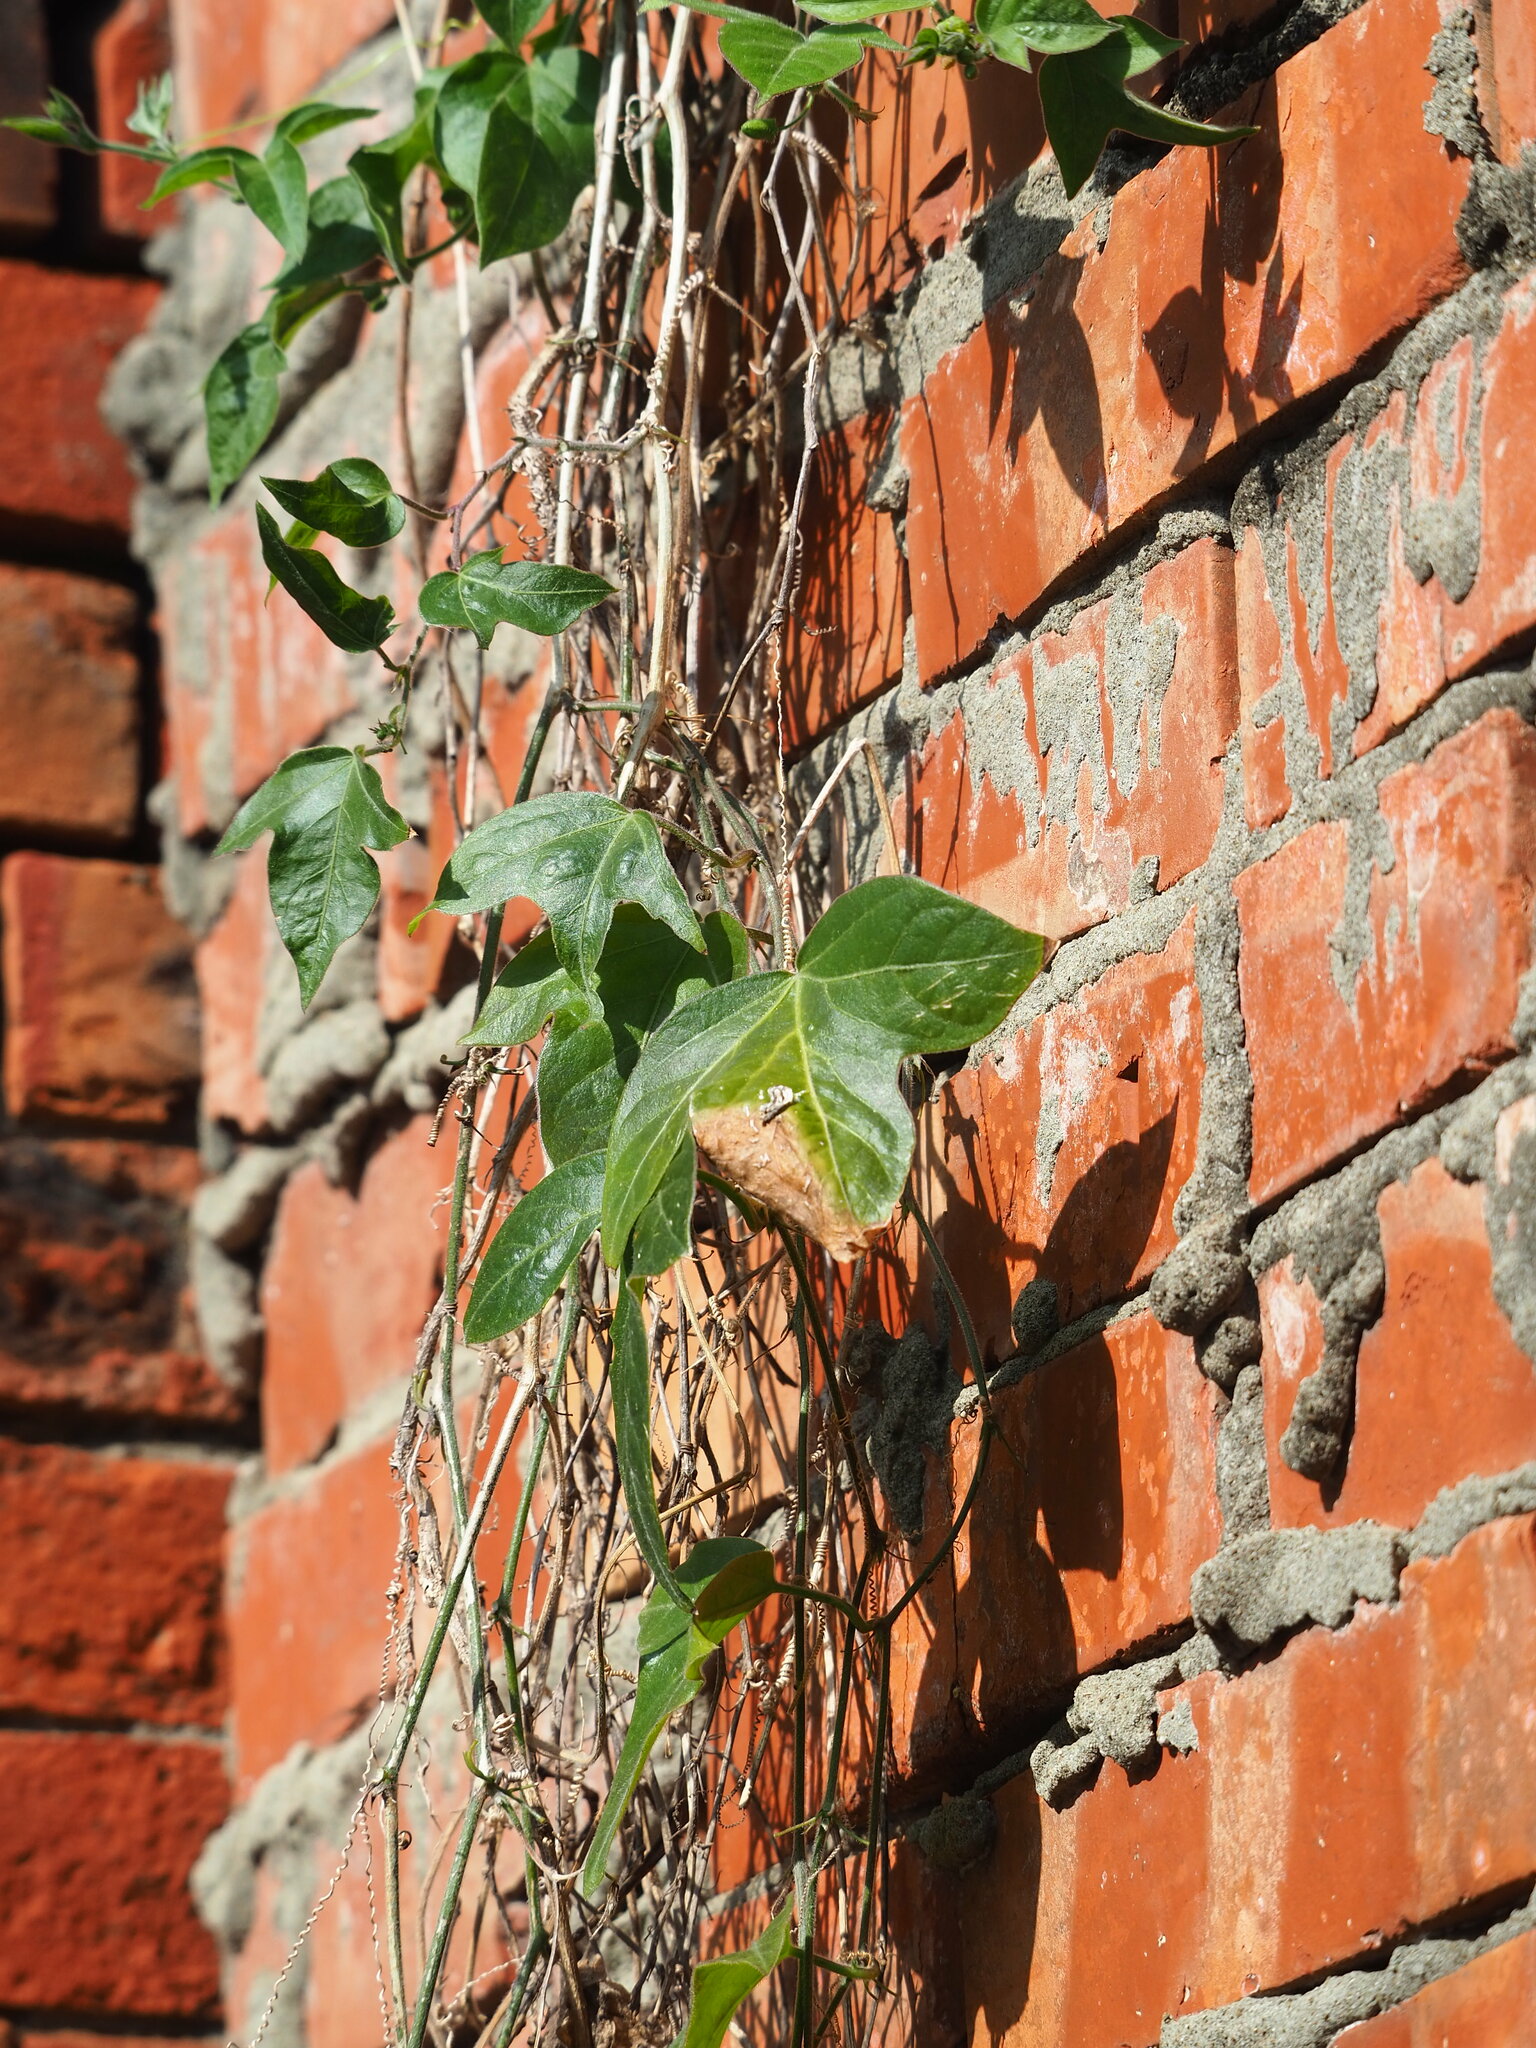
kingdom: Plantae
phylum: Tracheophyta
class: Magnoliopsida
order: Malpighiales
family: Passifloraceae
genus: Passiflora
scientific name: Passiflora suberosa
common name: Wild passionfruit
